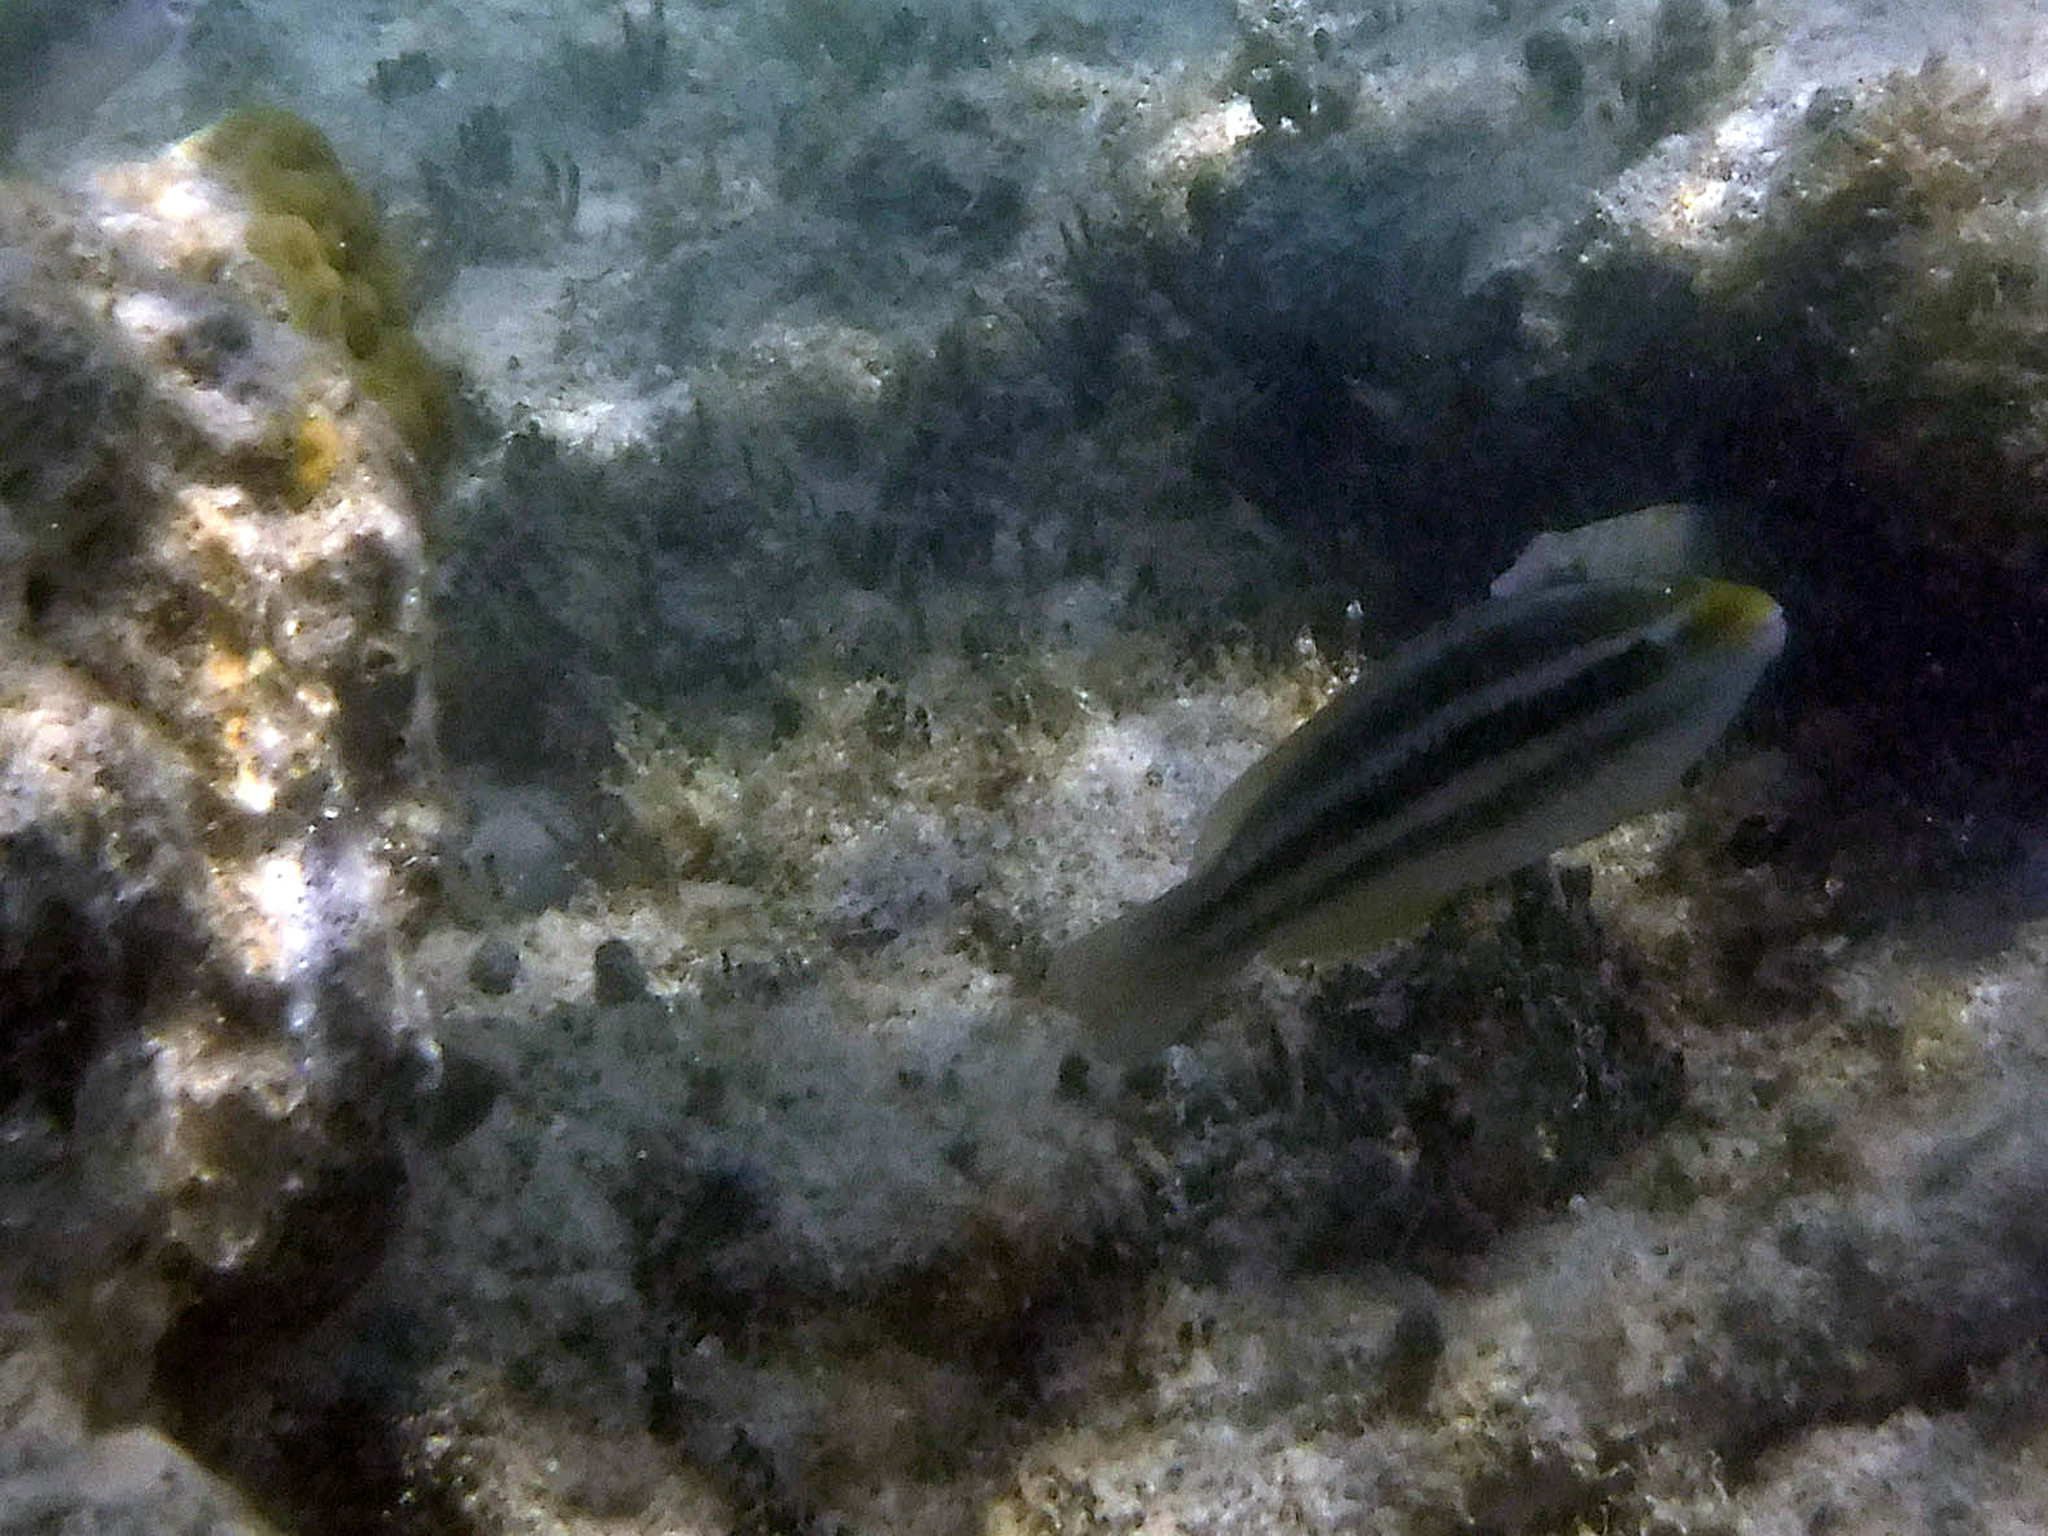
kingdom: Animalia
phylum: Chordata
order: Perciformes
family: Scaridae
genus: Scarus
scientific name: Scarus iseri
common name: Striped parrotfish
